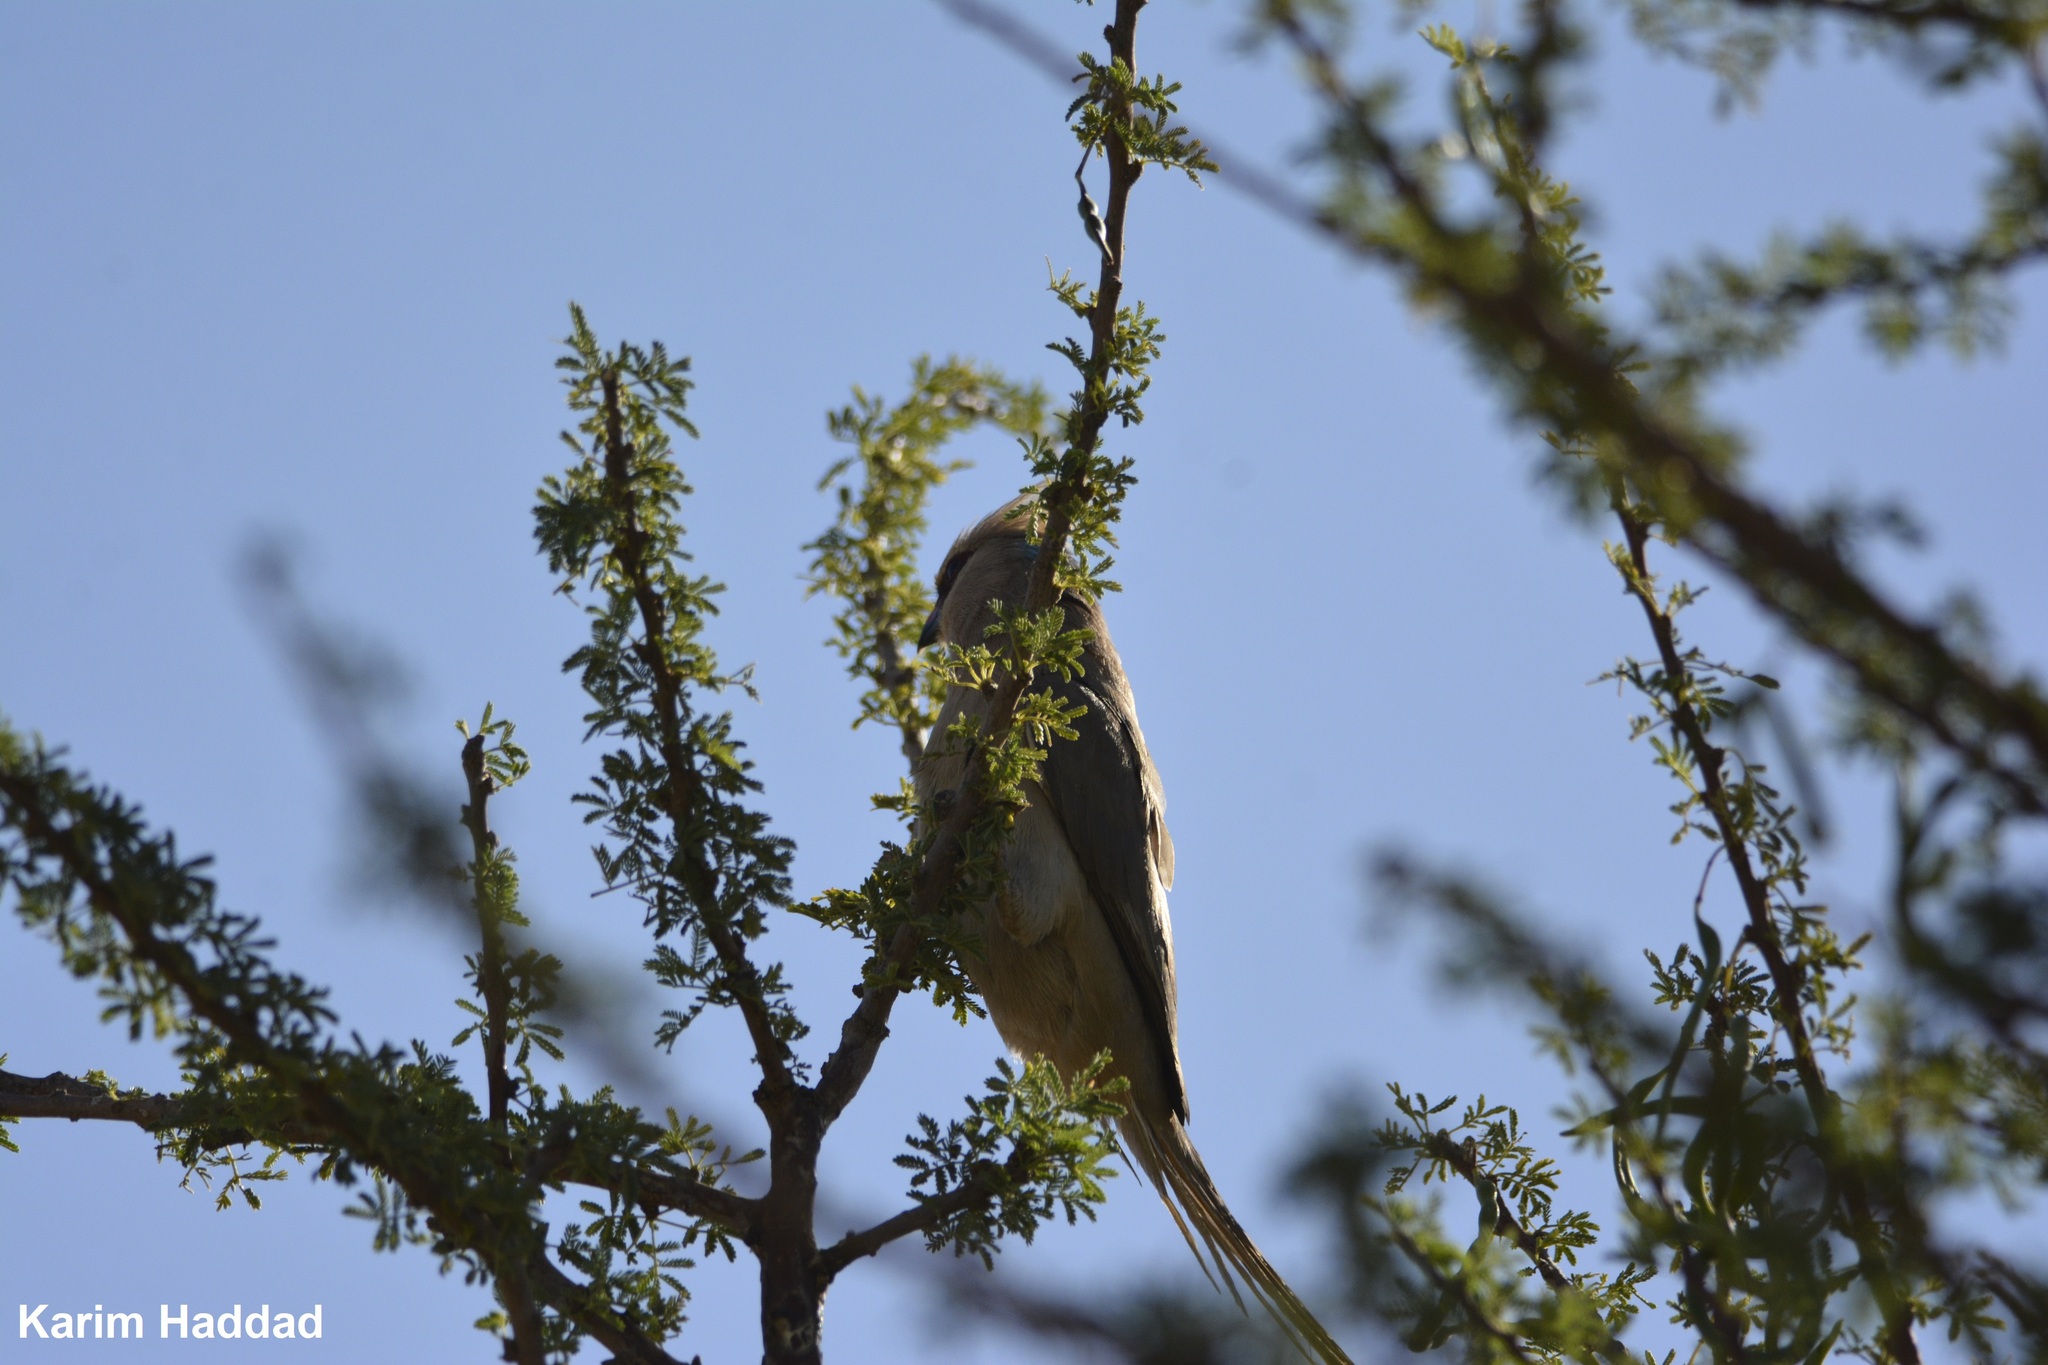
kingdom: Animalia
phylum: Chordata
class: Aves
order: Coliiformes
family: Coliidae
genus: Urocolius
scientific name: Urocolius macrourus
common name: Blue-naped mousebird
